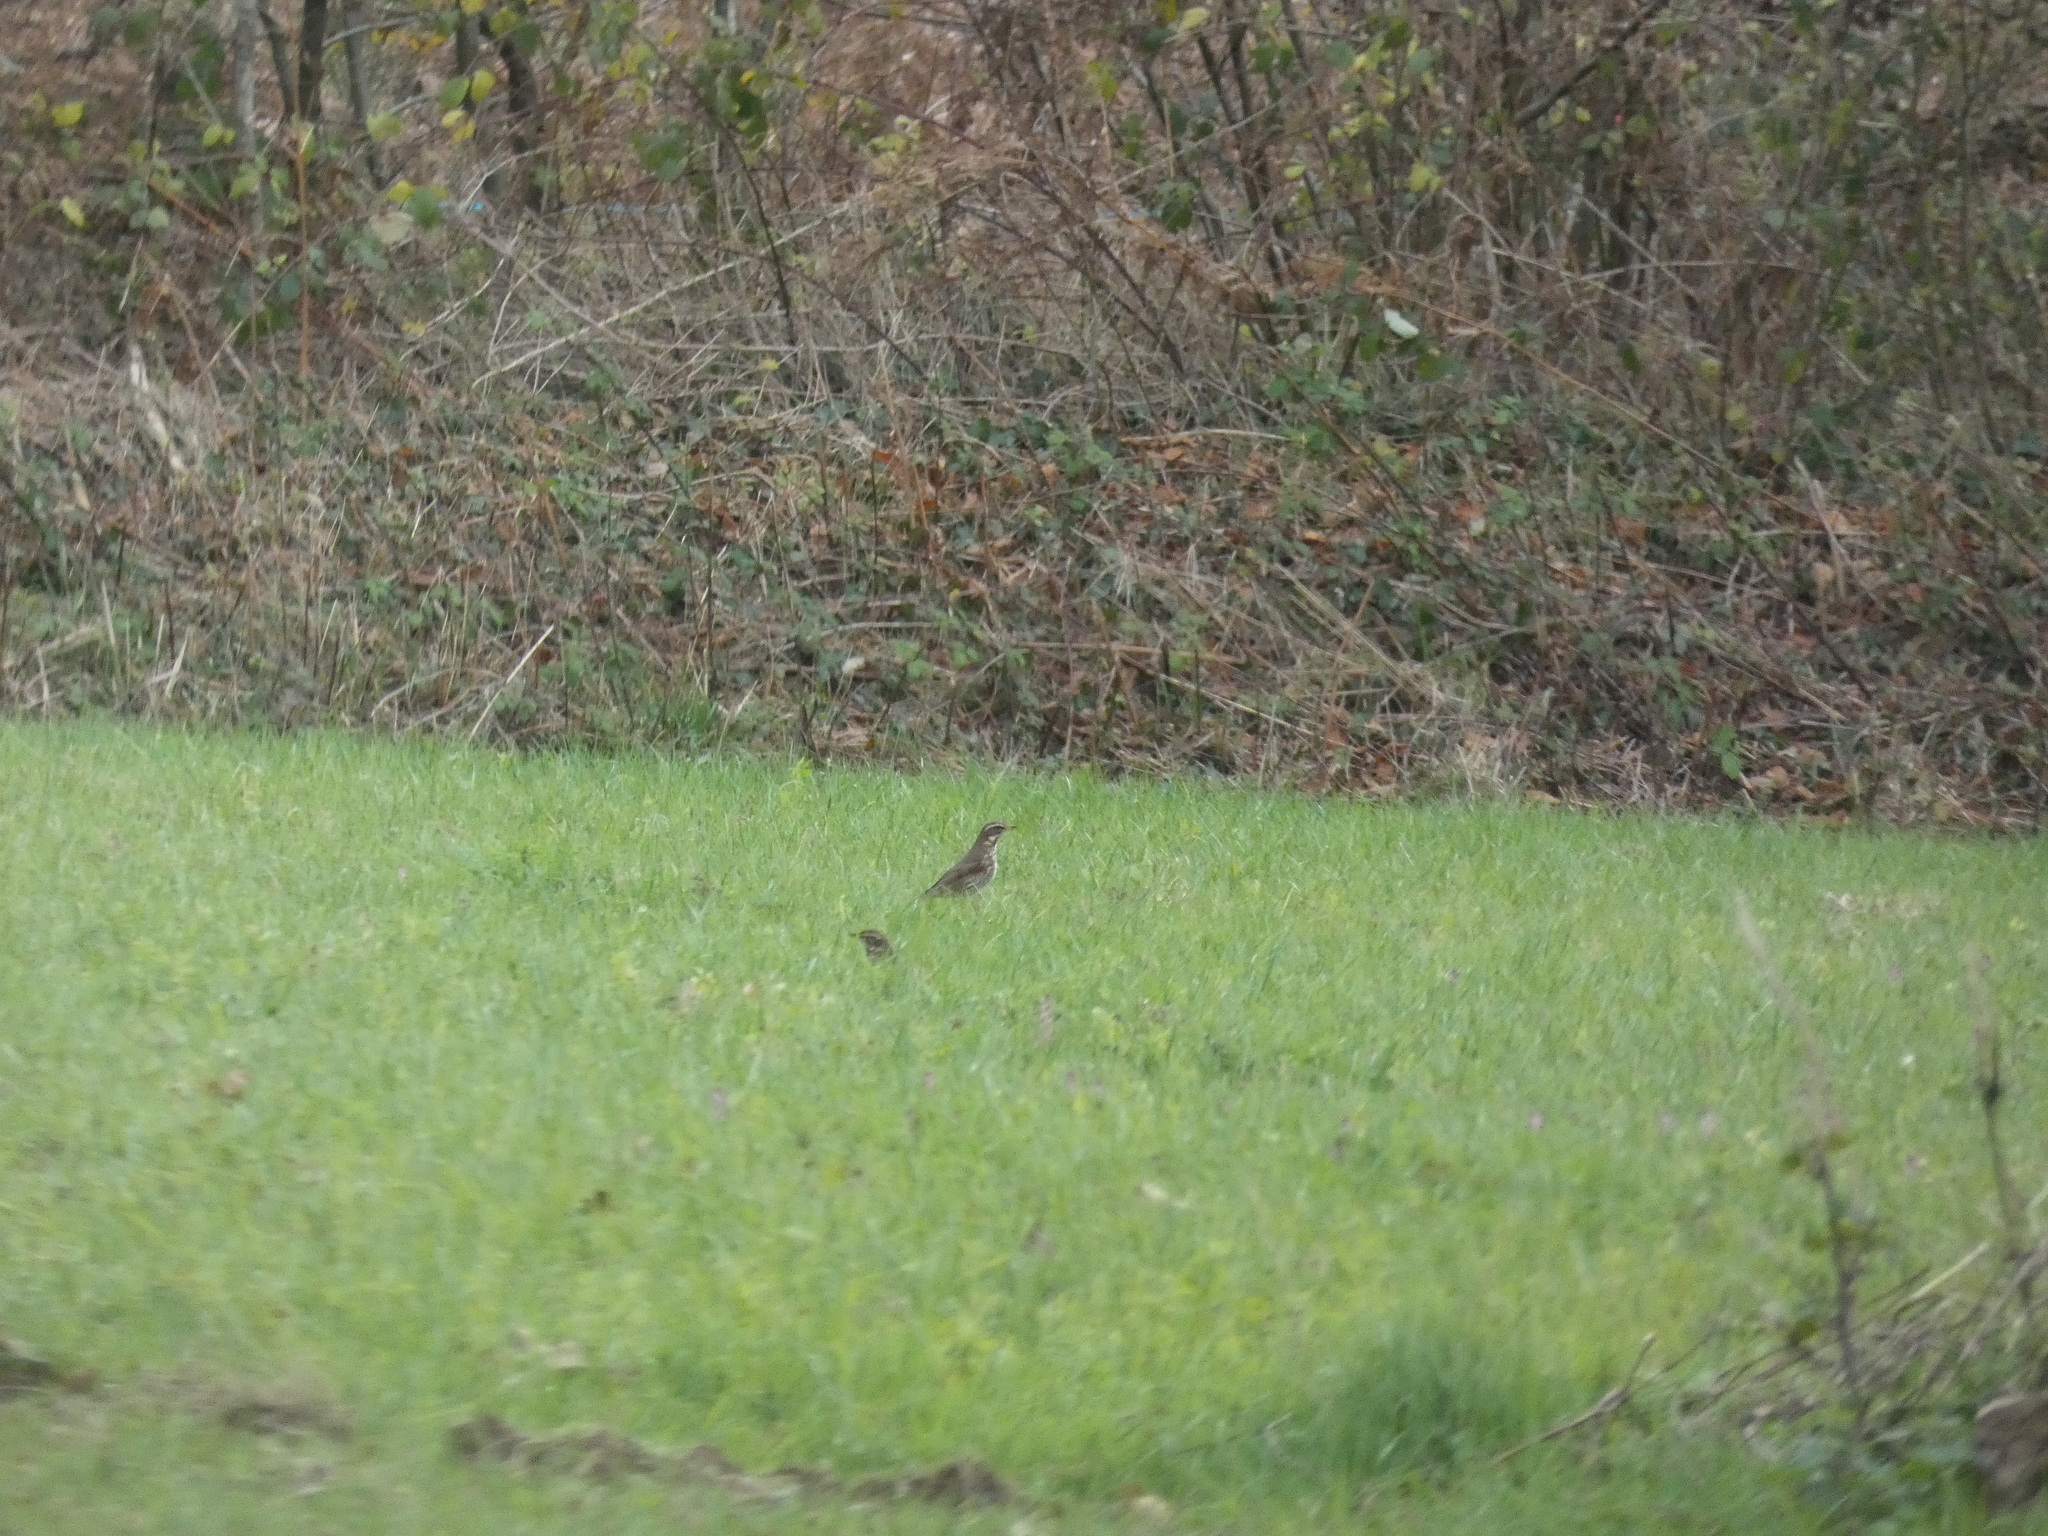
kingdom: Animalia
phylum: Chordata
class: Aves
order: Passeriformes
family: Turdidae
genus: Turdus
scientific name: Turdus iliacus
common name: Redwing
